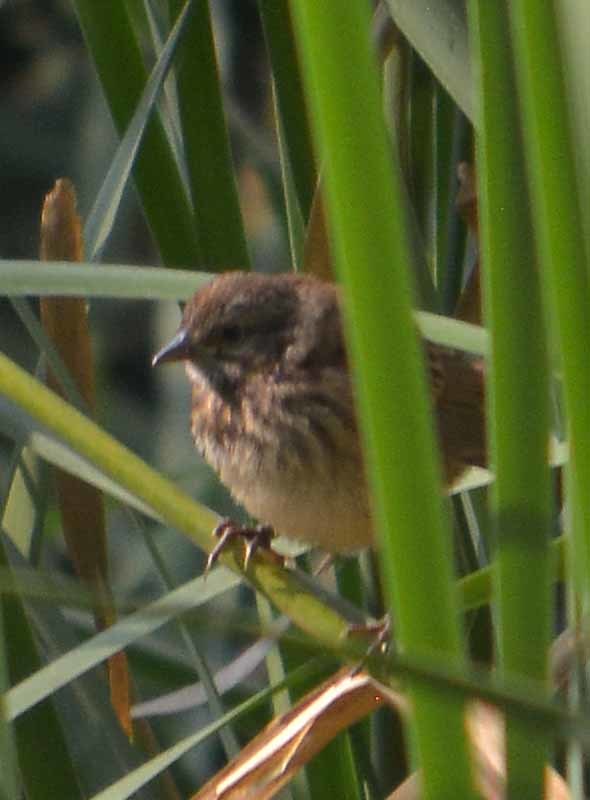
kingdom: Animalia
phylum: Chordata
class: Aves
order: Passeriformes
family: Passerellidae
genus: Melospiza
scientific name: Melospiza melodia
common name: Song sparrow
